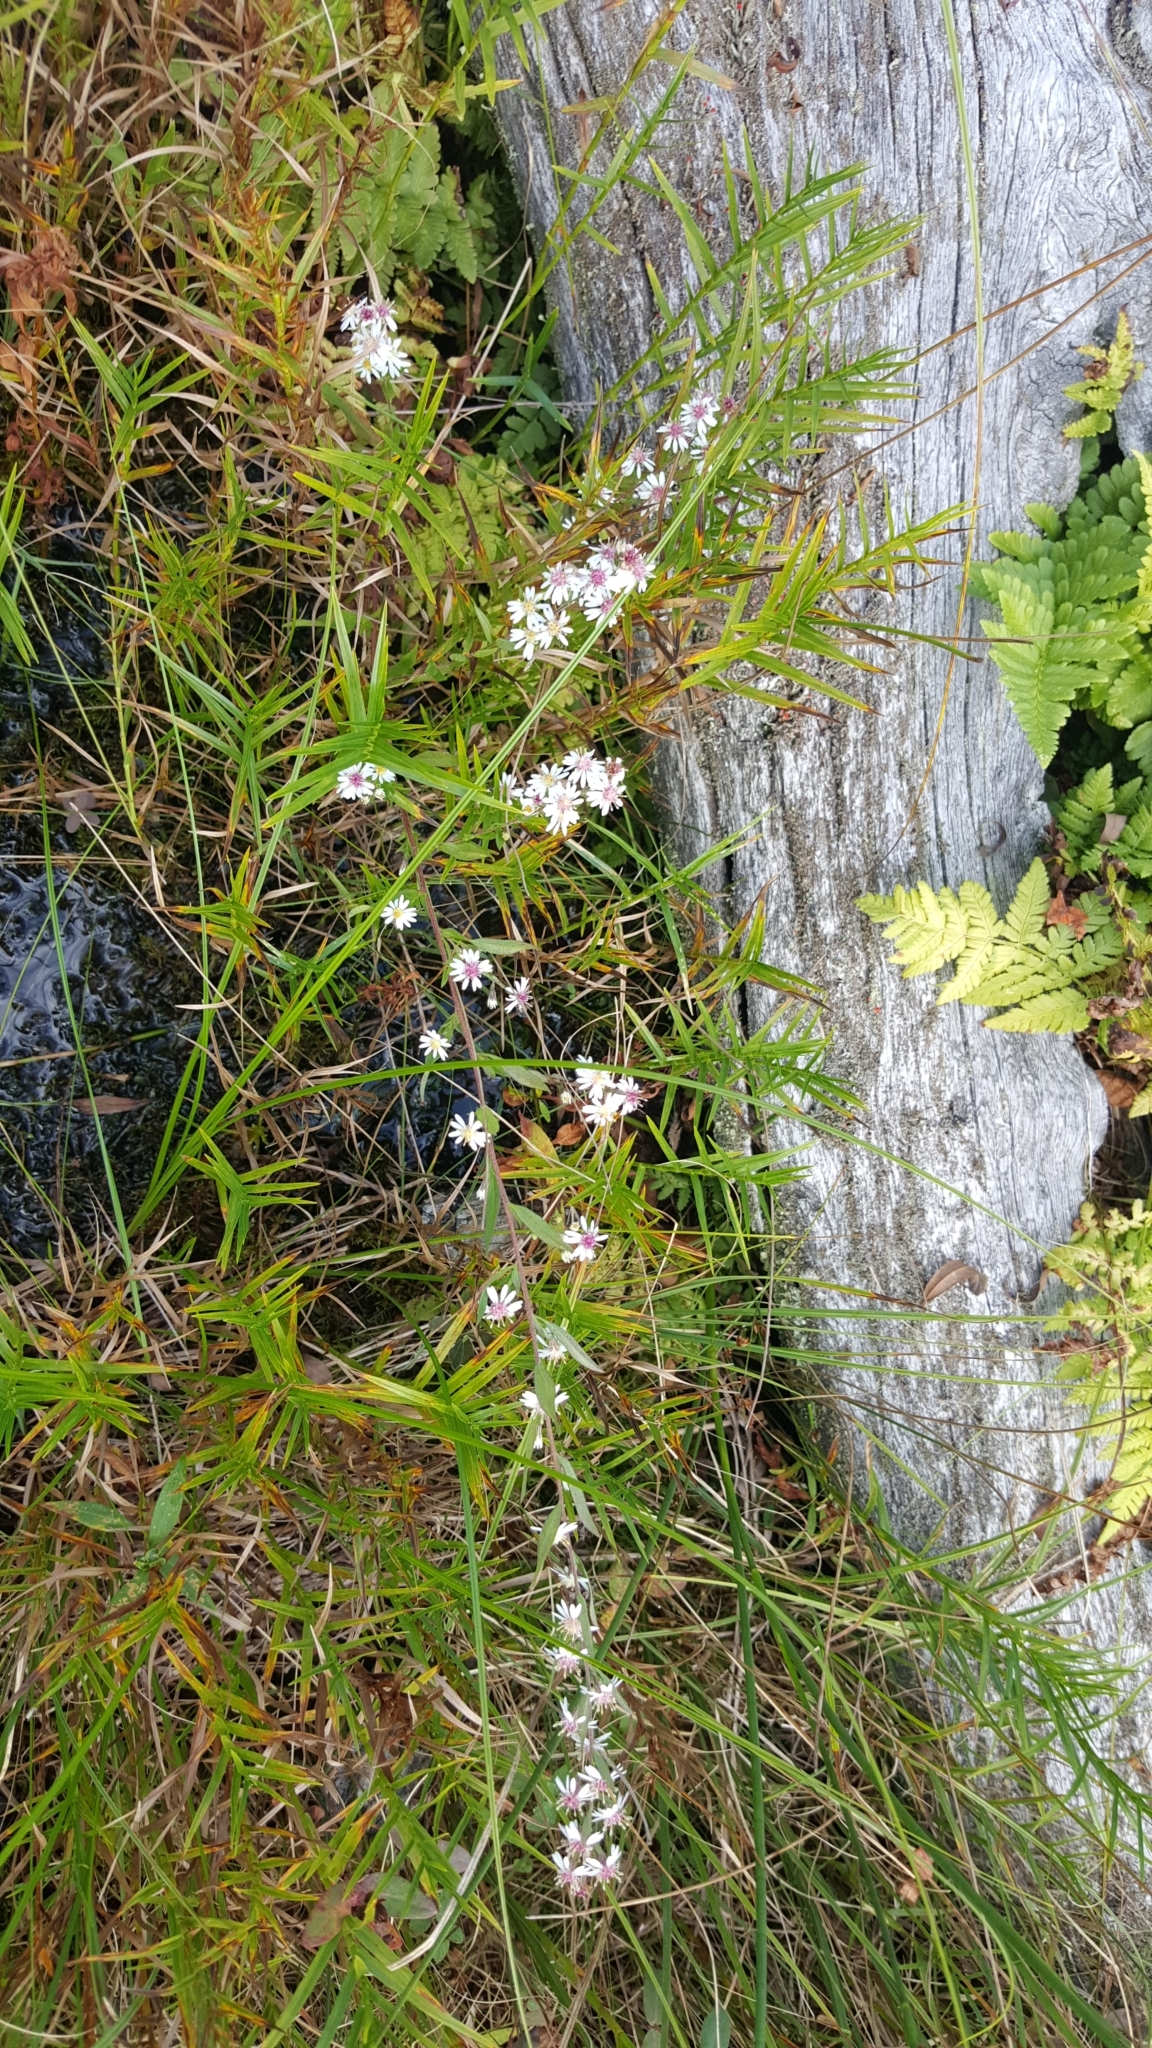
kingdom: Plantae
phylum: Tracheophyta
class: Magnoliopsida
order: Asterales
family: Asteraceae
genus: Symphyotrichum
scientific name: Symphyotrichum lateriflorum
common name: Calico aster
